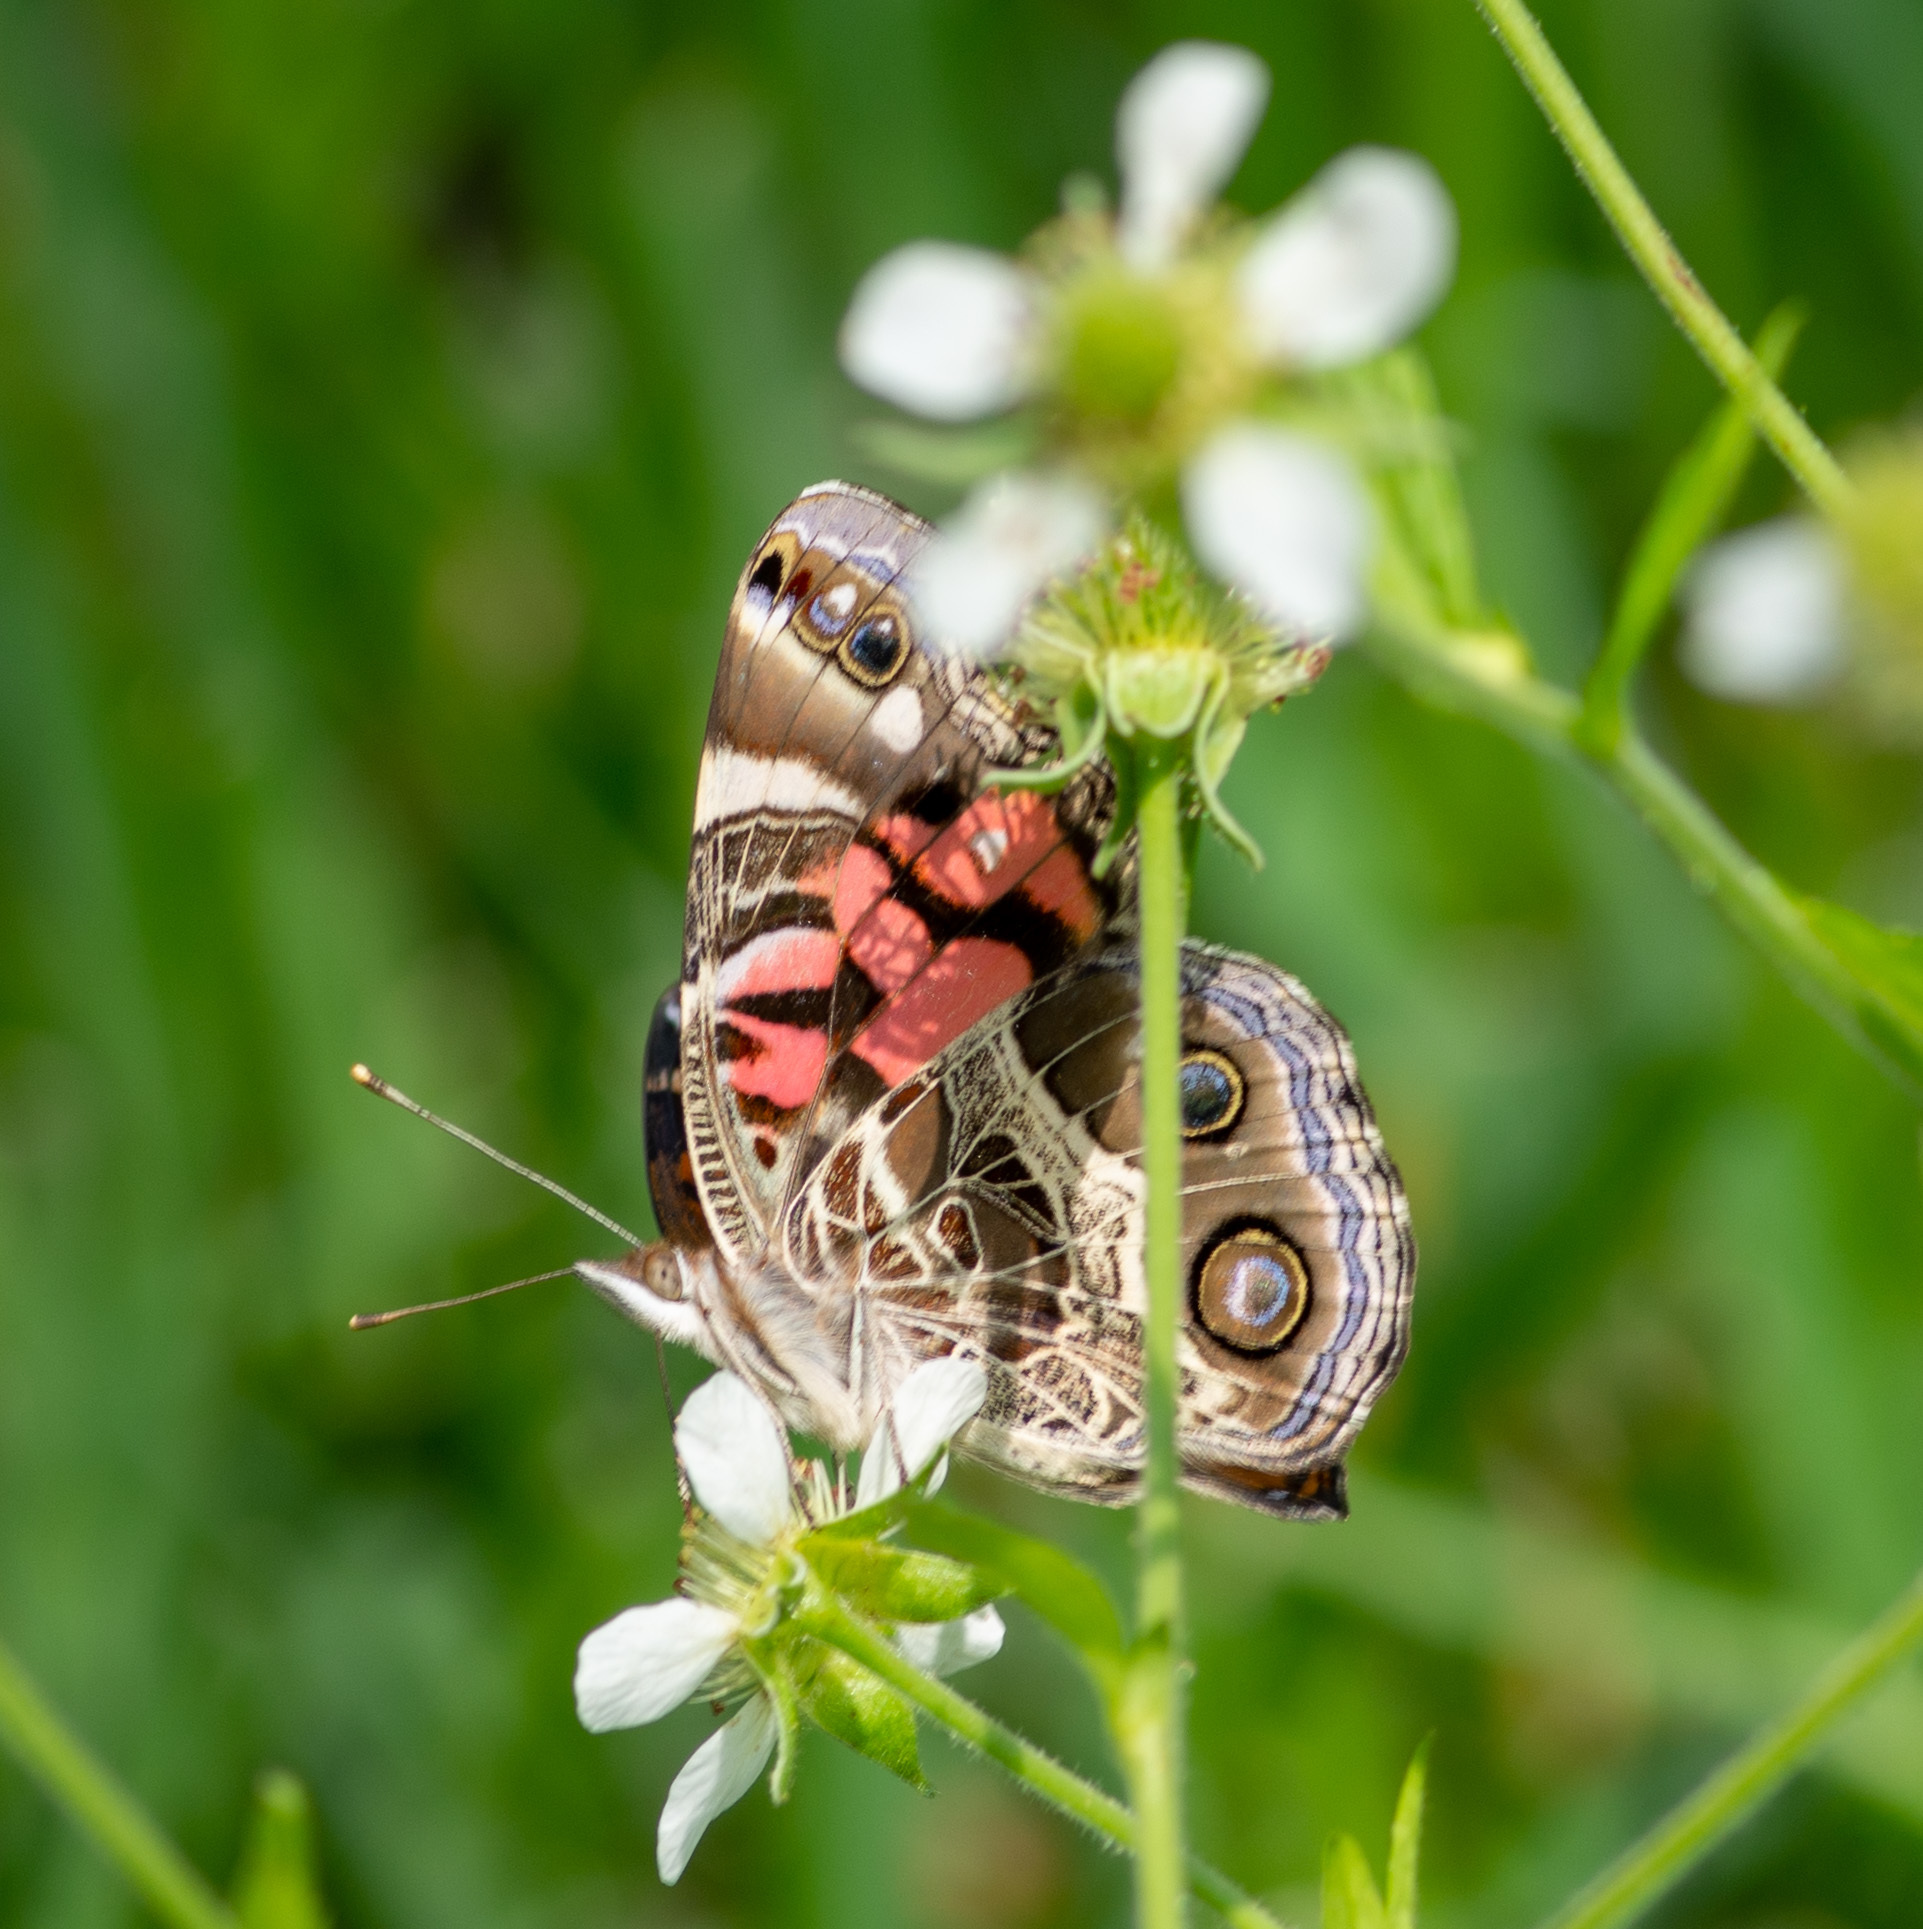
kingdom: Animalia
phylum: Arthropoda
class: Insecta
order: Lepidoptera
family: Nymphalidae
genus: Vanessa
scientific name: Vanessa virginiensis
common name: American lady
